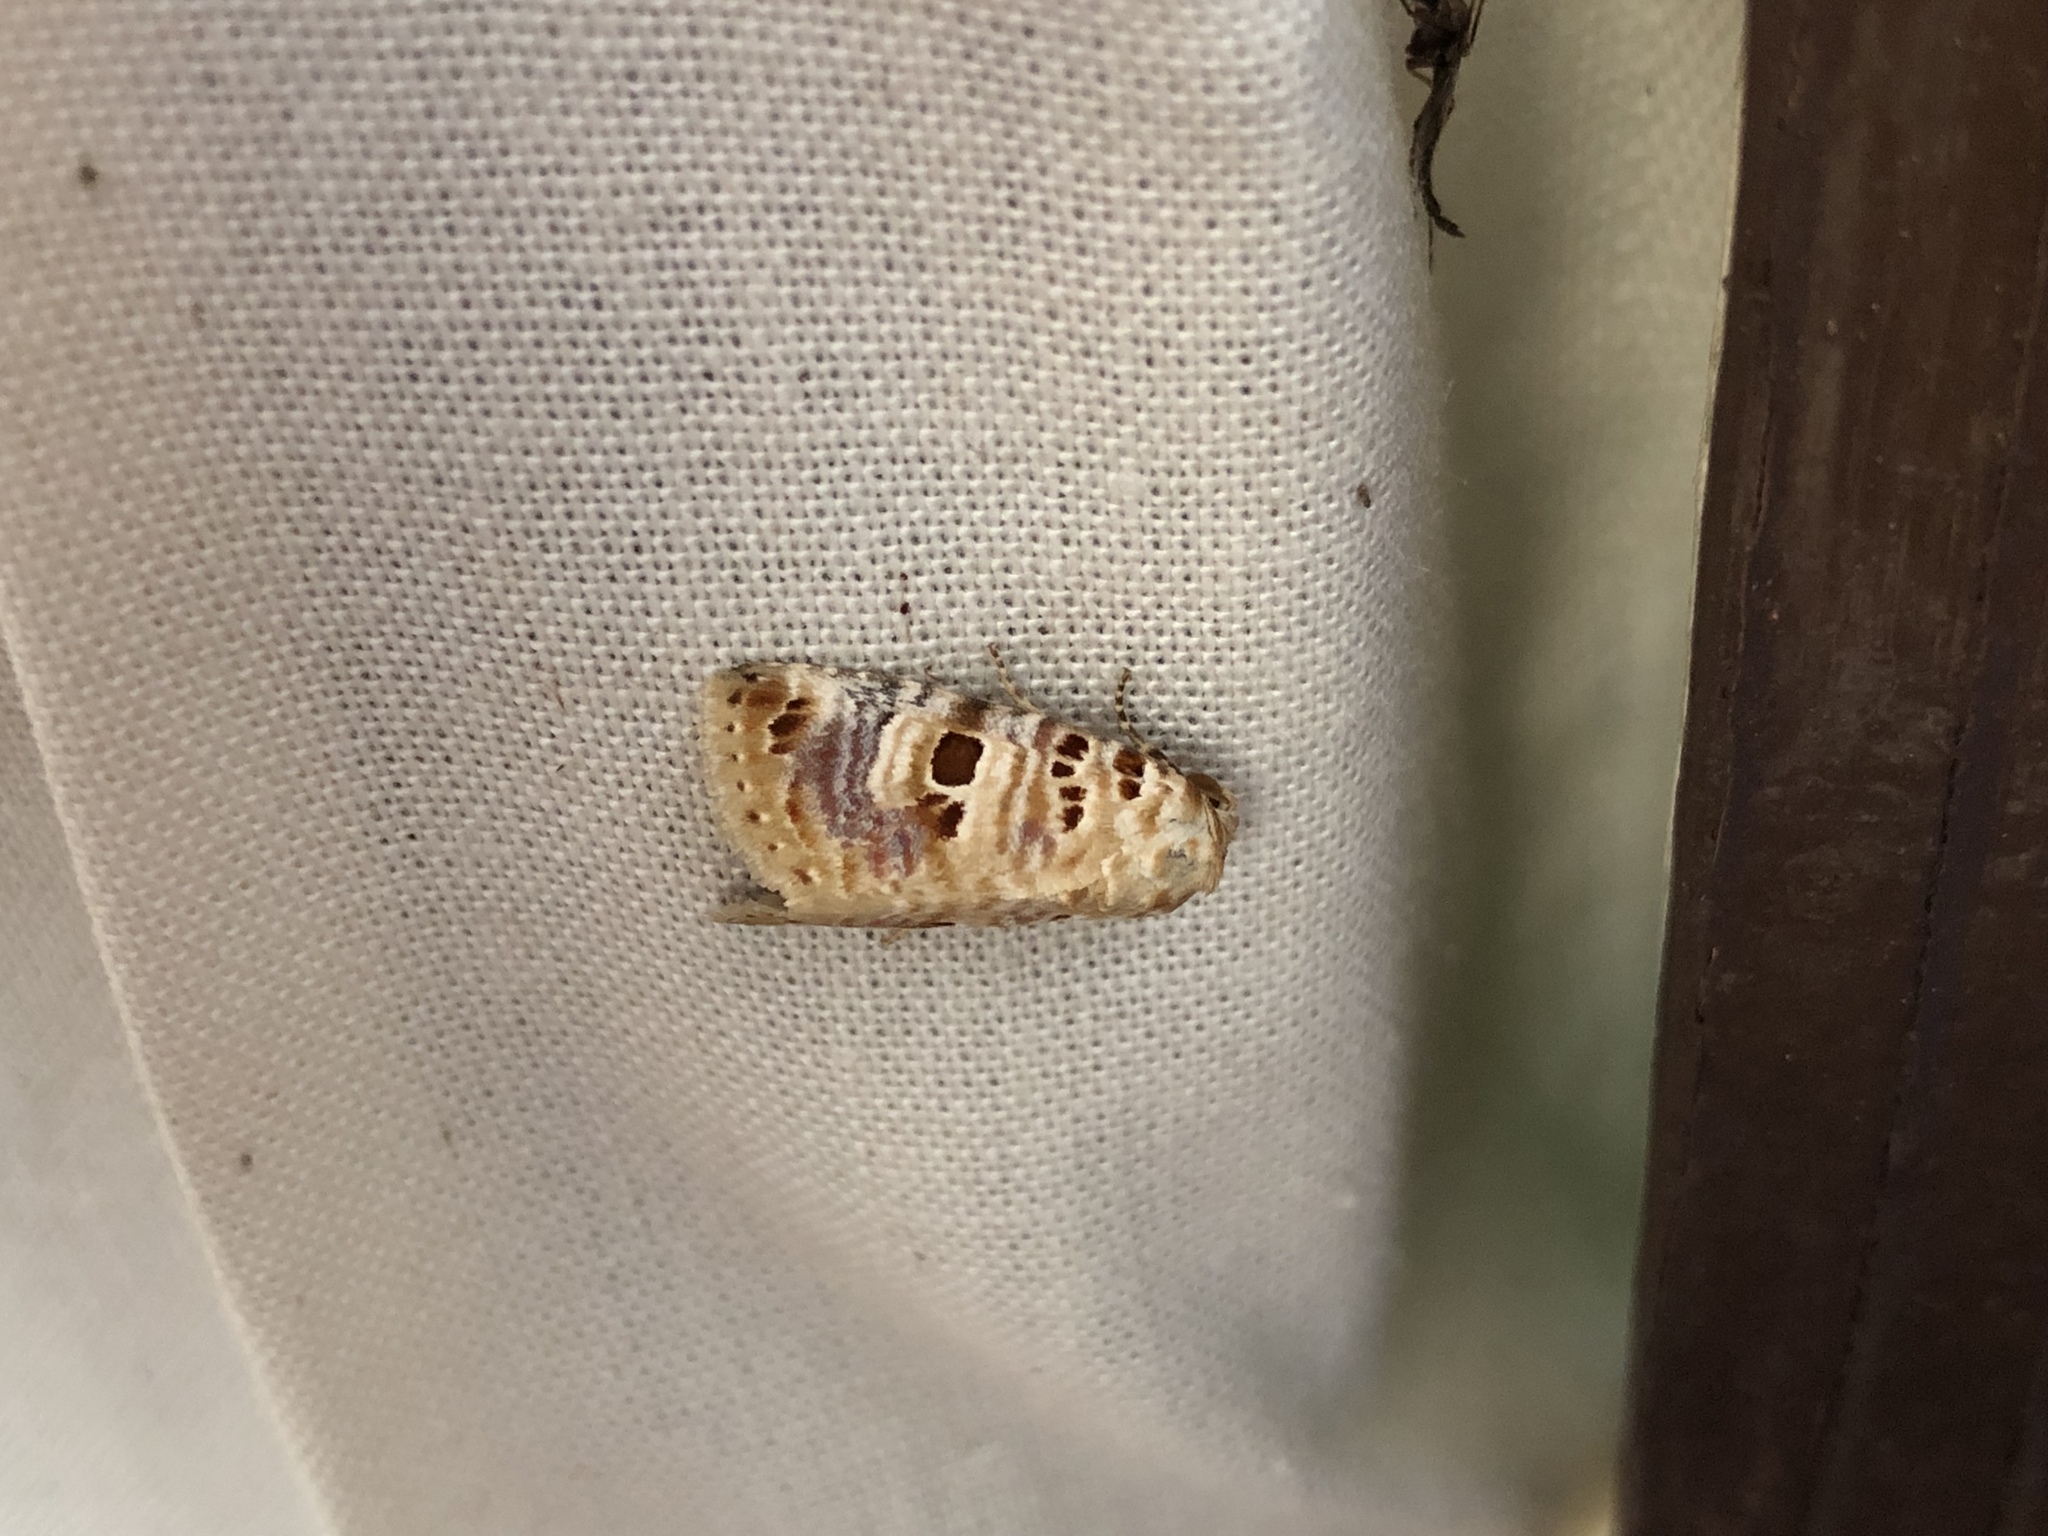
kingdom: Animalia
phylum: Arthropoda
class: Insecta
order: Lepidoptera
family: Noctuidae
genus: Diastema
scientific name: Diastema tigris
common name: Lantana moth
